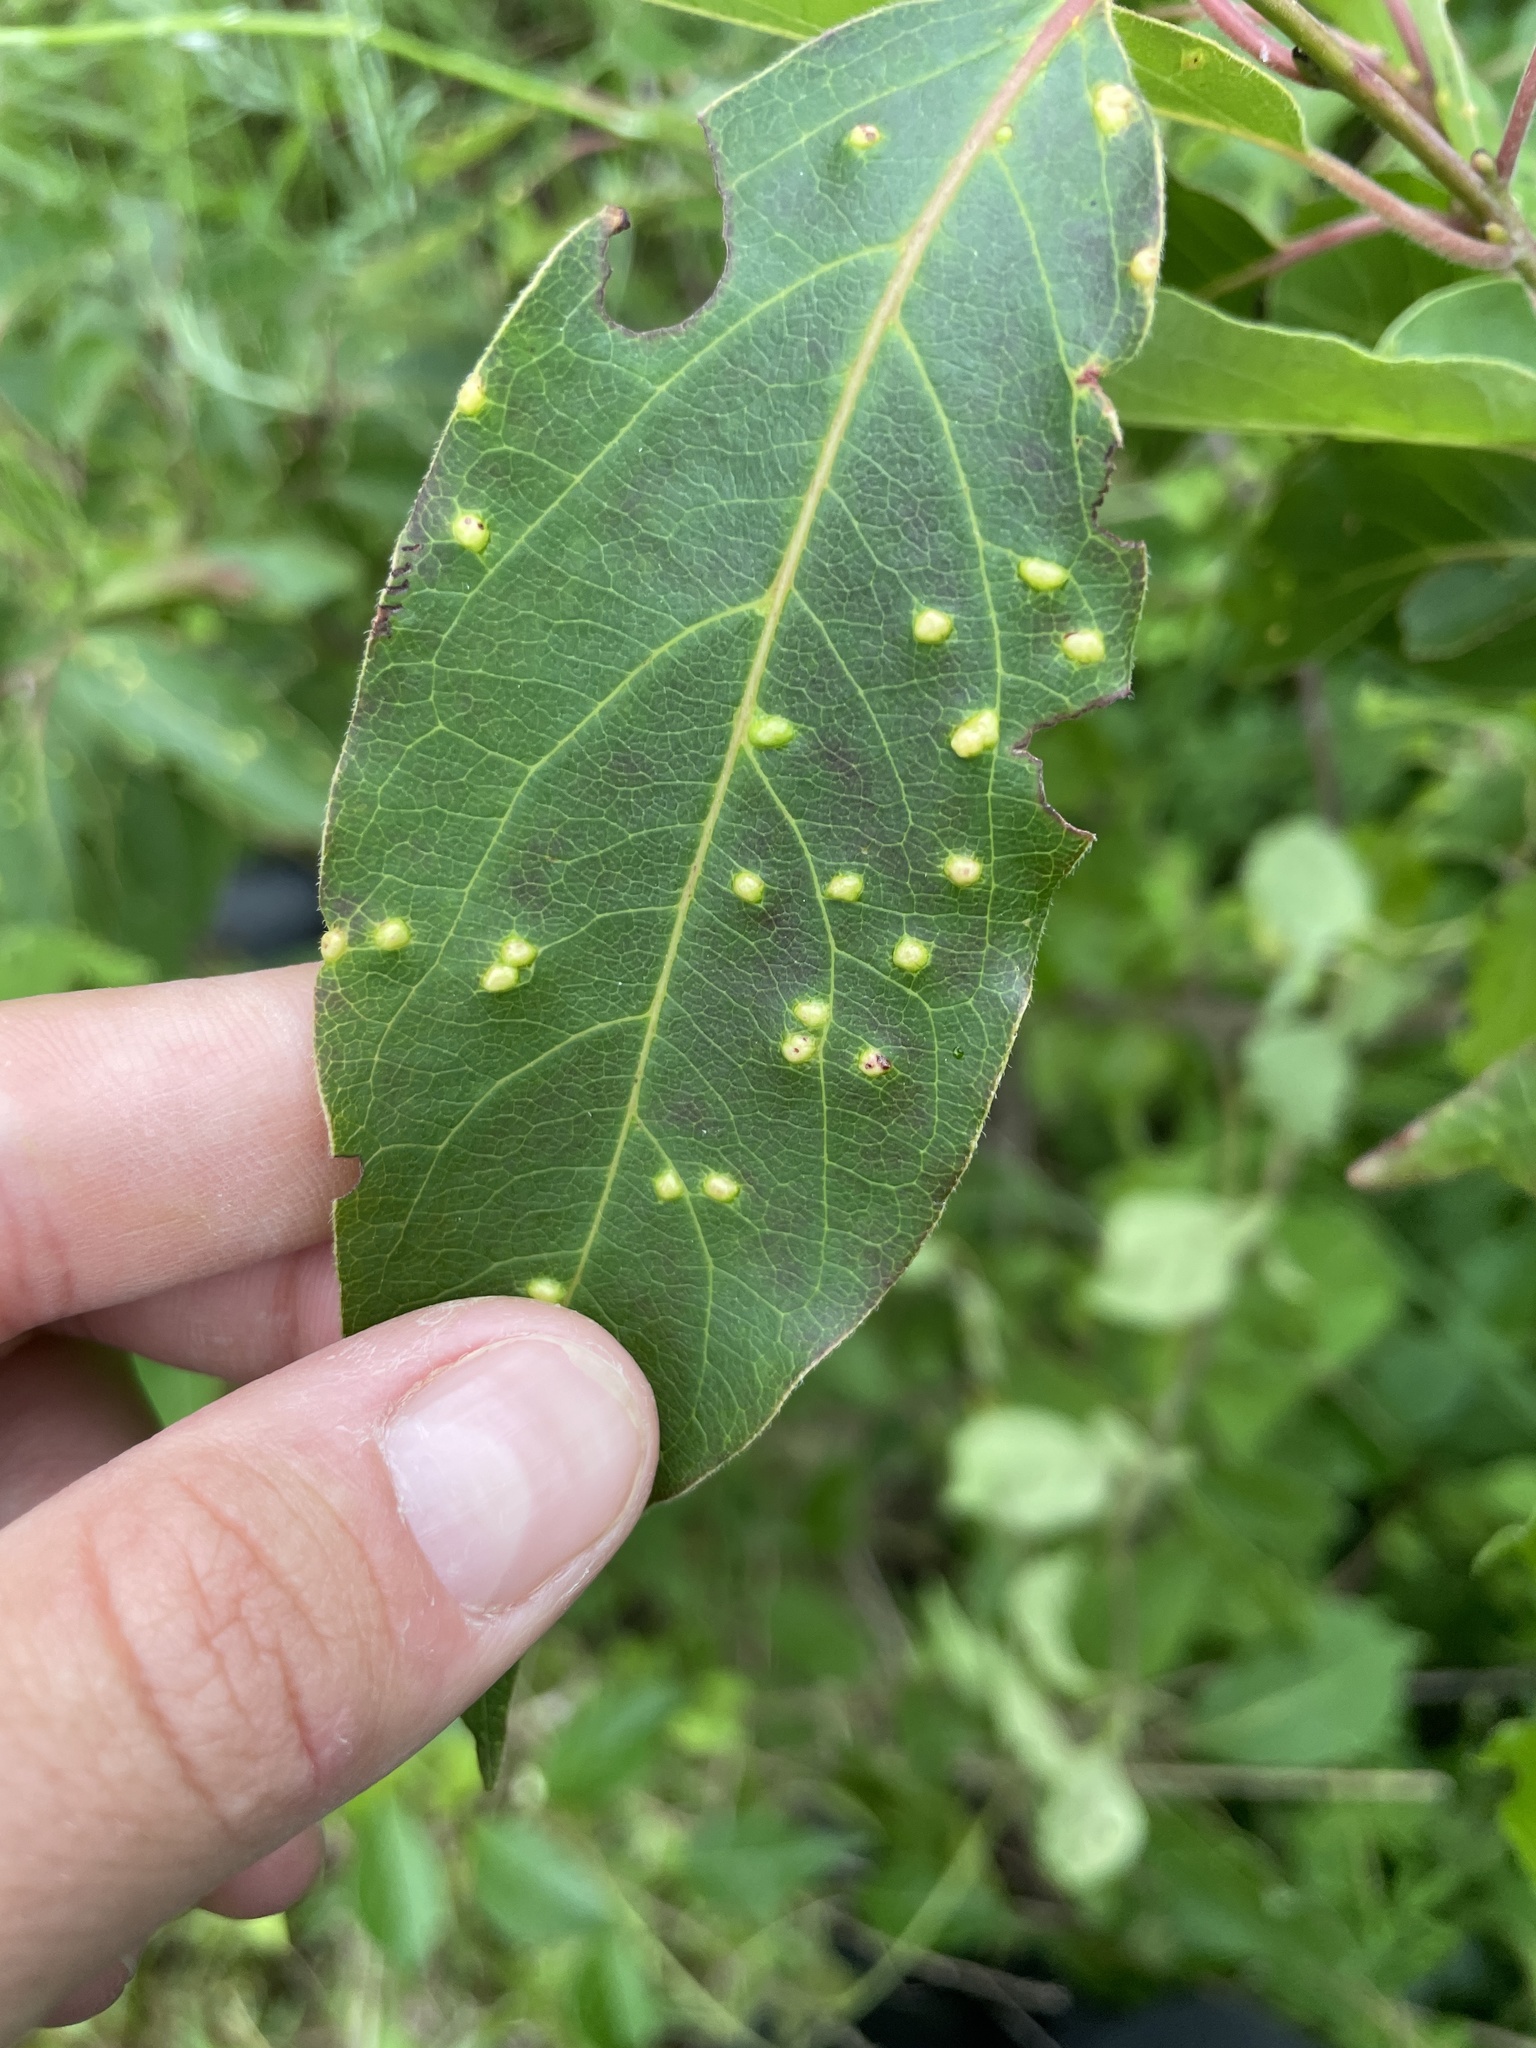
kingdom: Animalia
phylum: Arthropoda
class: Arachnida
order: Trombidiformes
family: Eriophyidae
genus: Aceria
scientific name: Aceria
